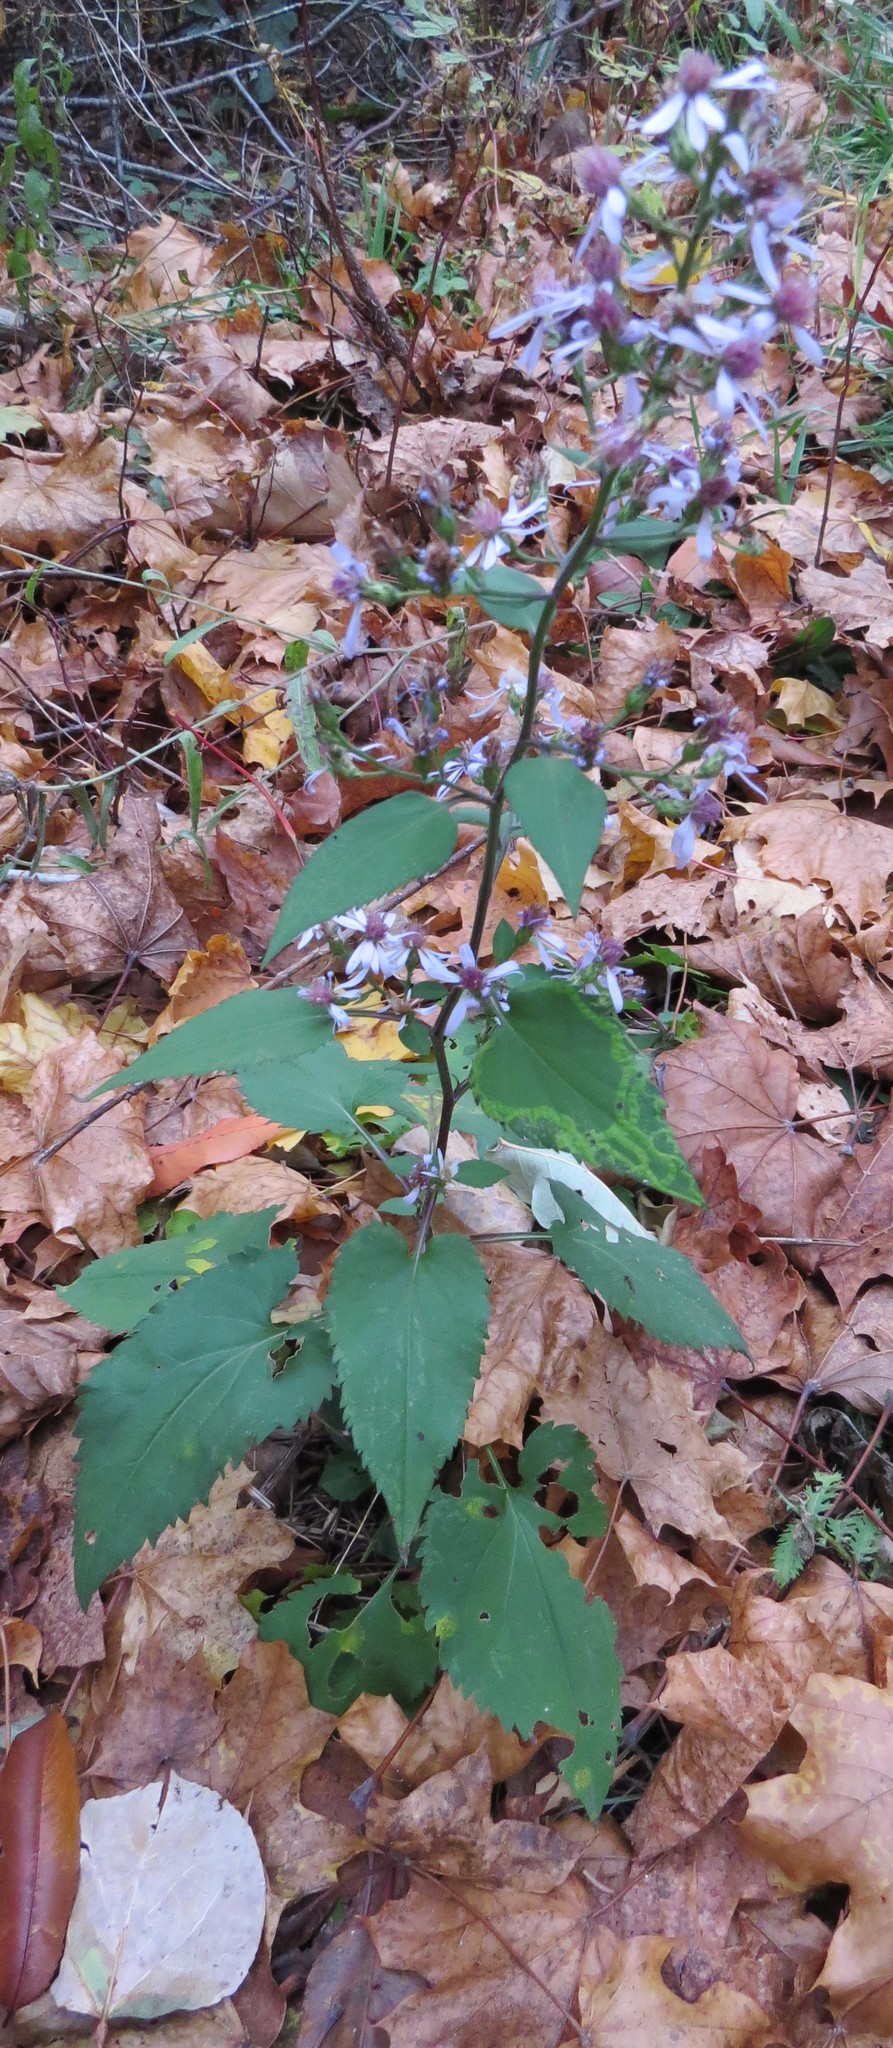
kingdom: Plantae
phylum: Tracheophyta
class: Magnoliopsida
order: Asterales
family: Asteraceae
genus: Symphyotrichum
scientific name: Symphyotrichum cordifolium
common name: Beeweed
